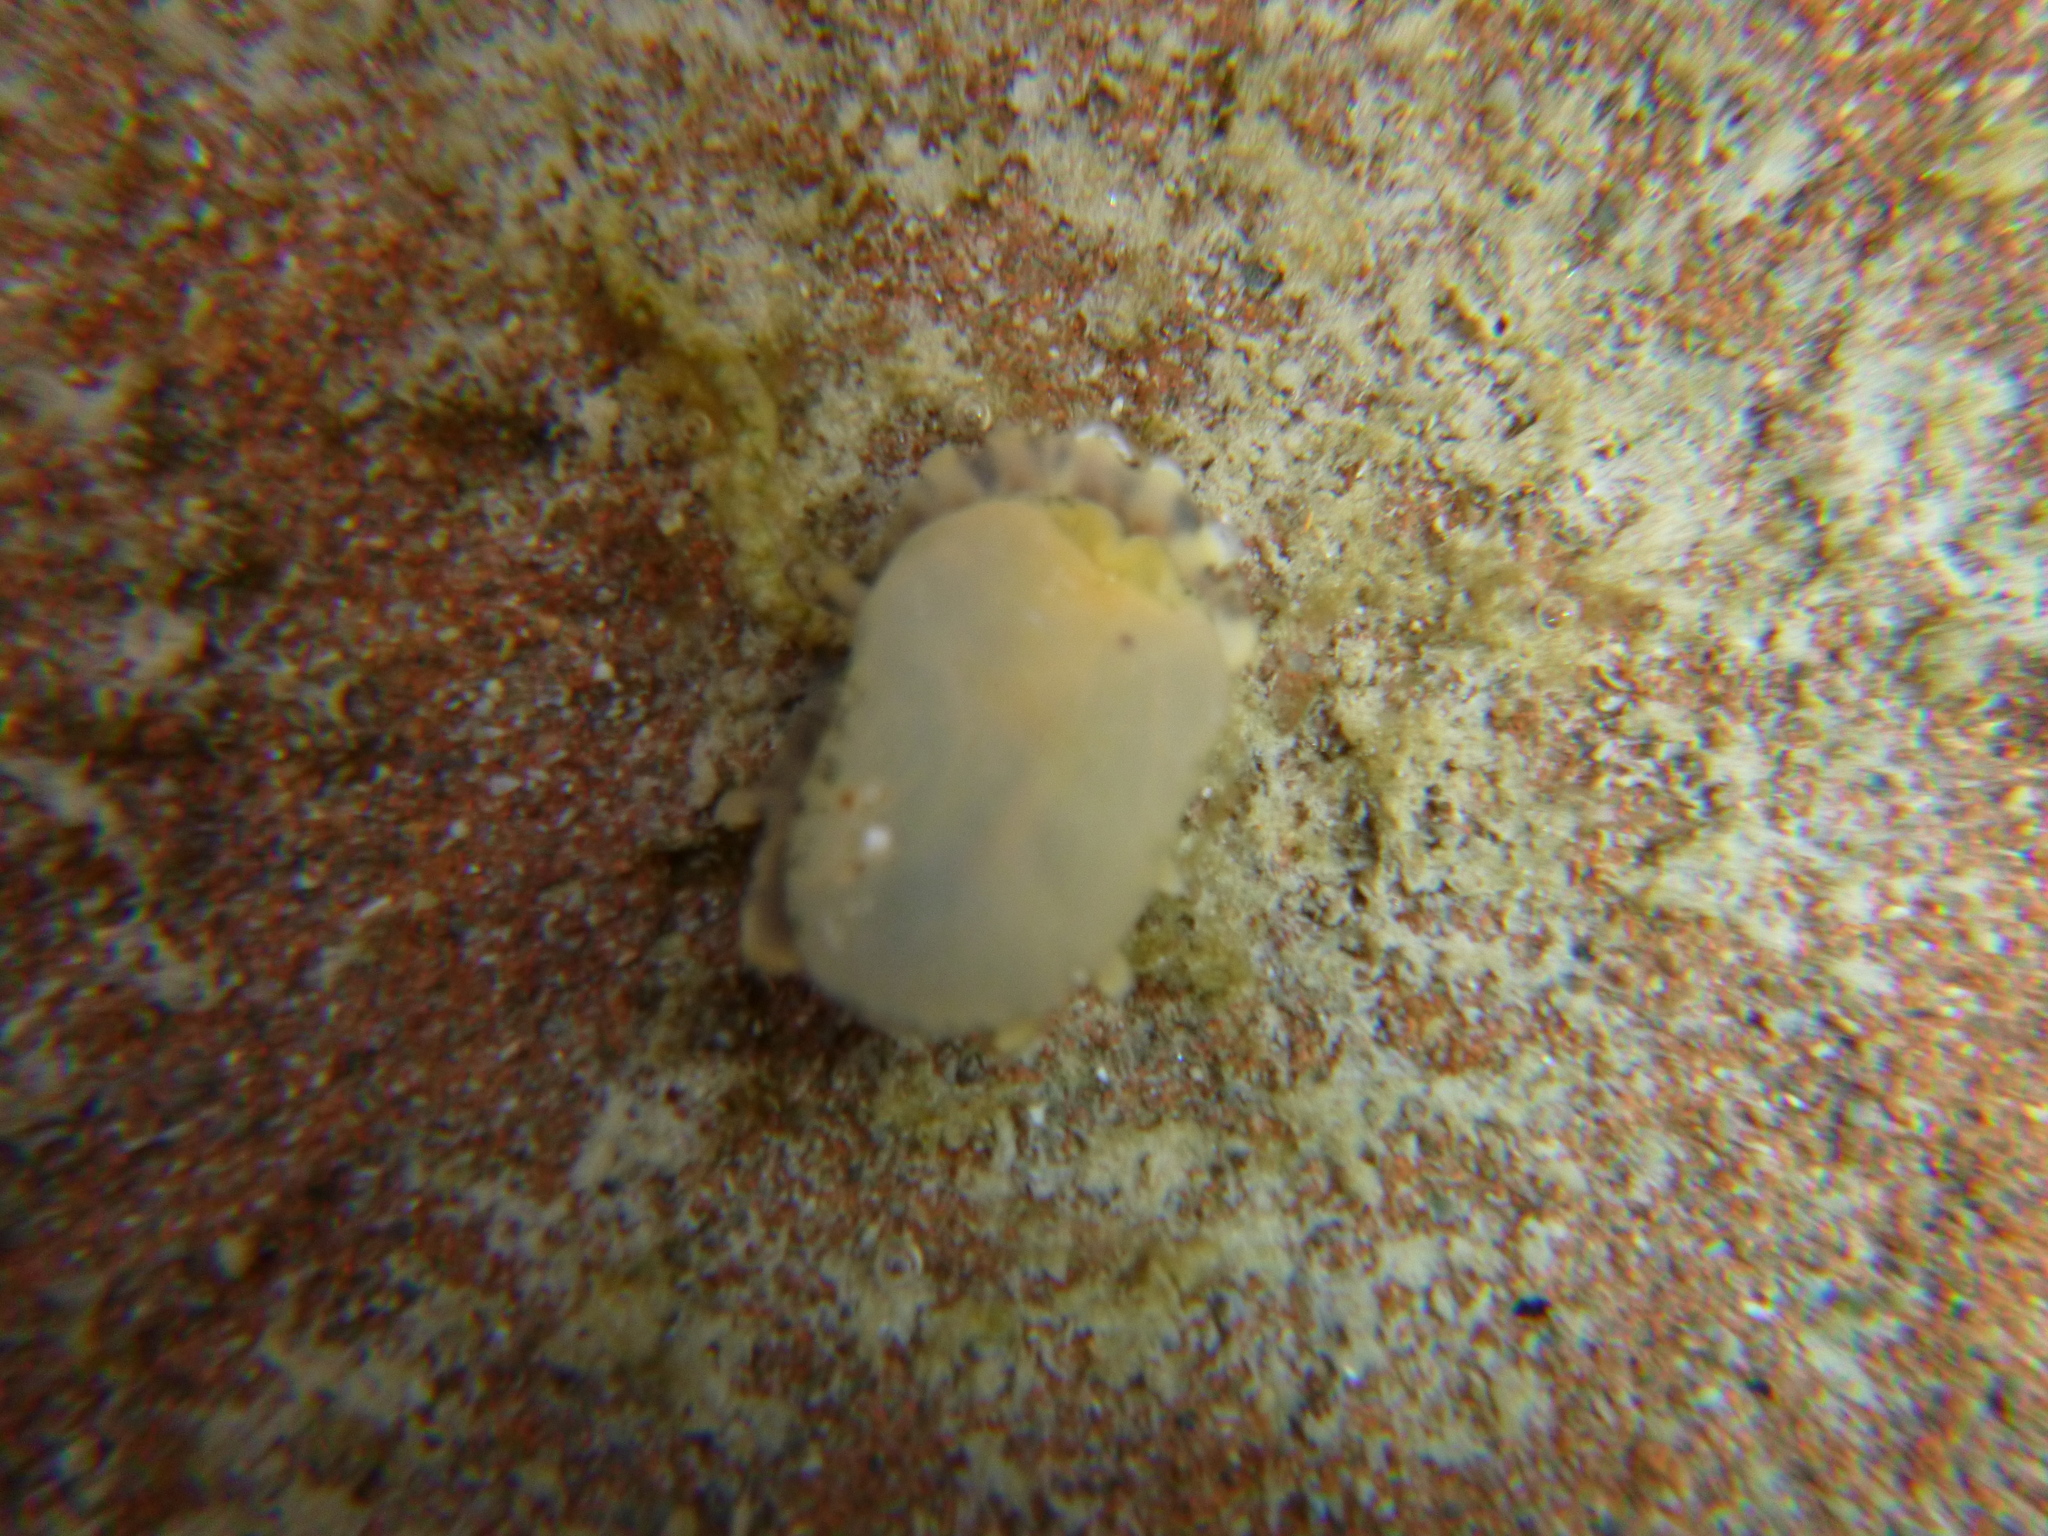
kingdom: Animalia
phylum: Mollusca
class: Gastropoda
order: Siphonariida
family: Siphonariidae
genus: Siphonaria
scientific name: Siphonaria australis
